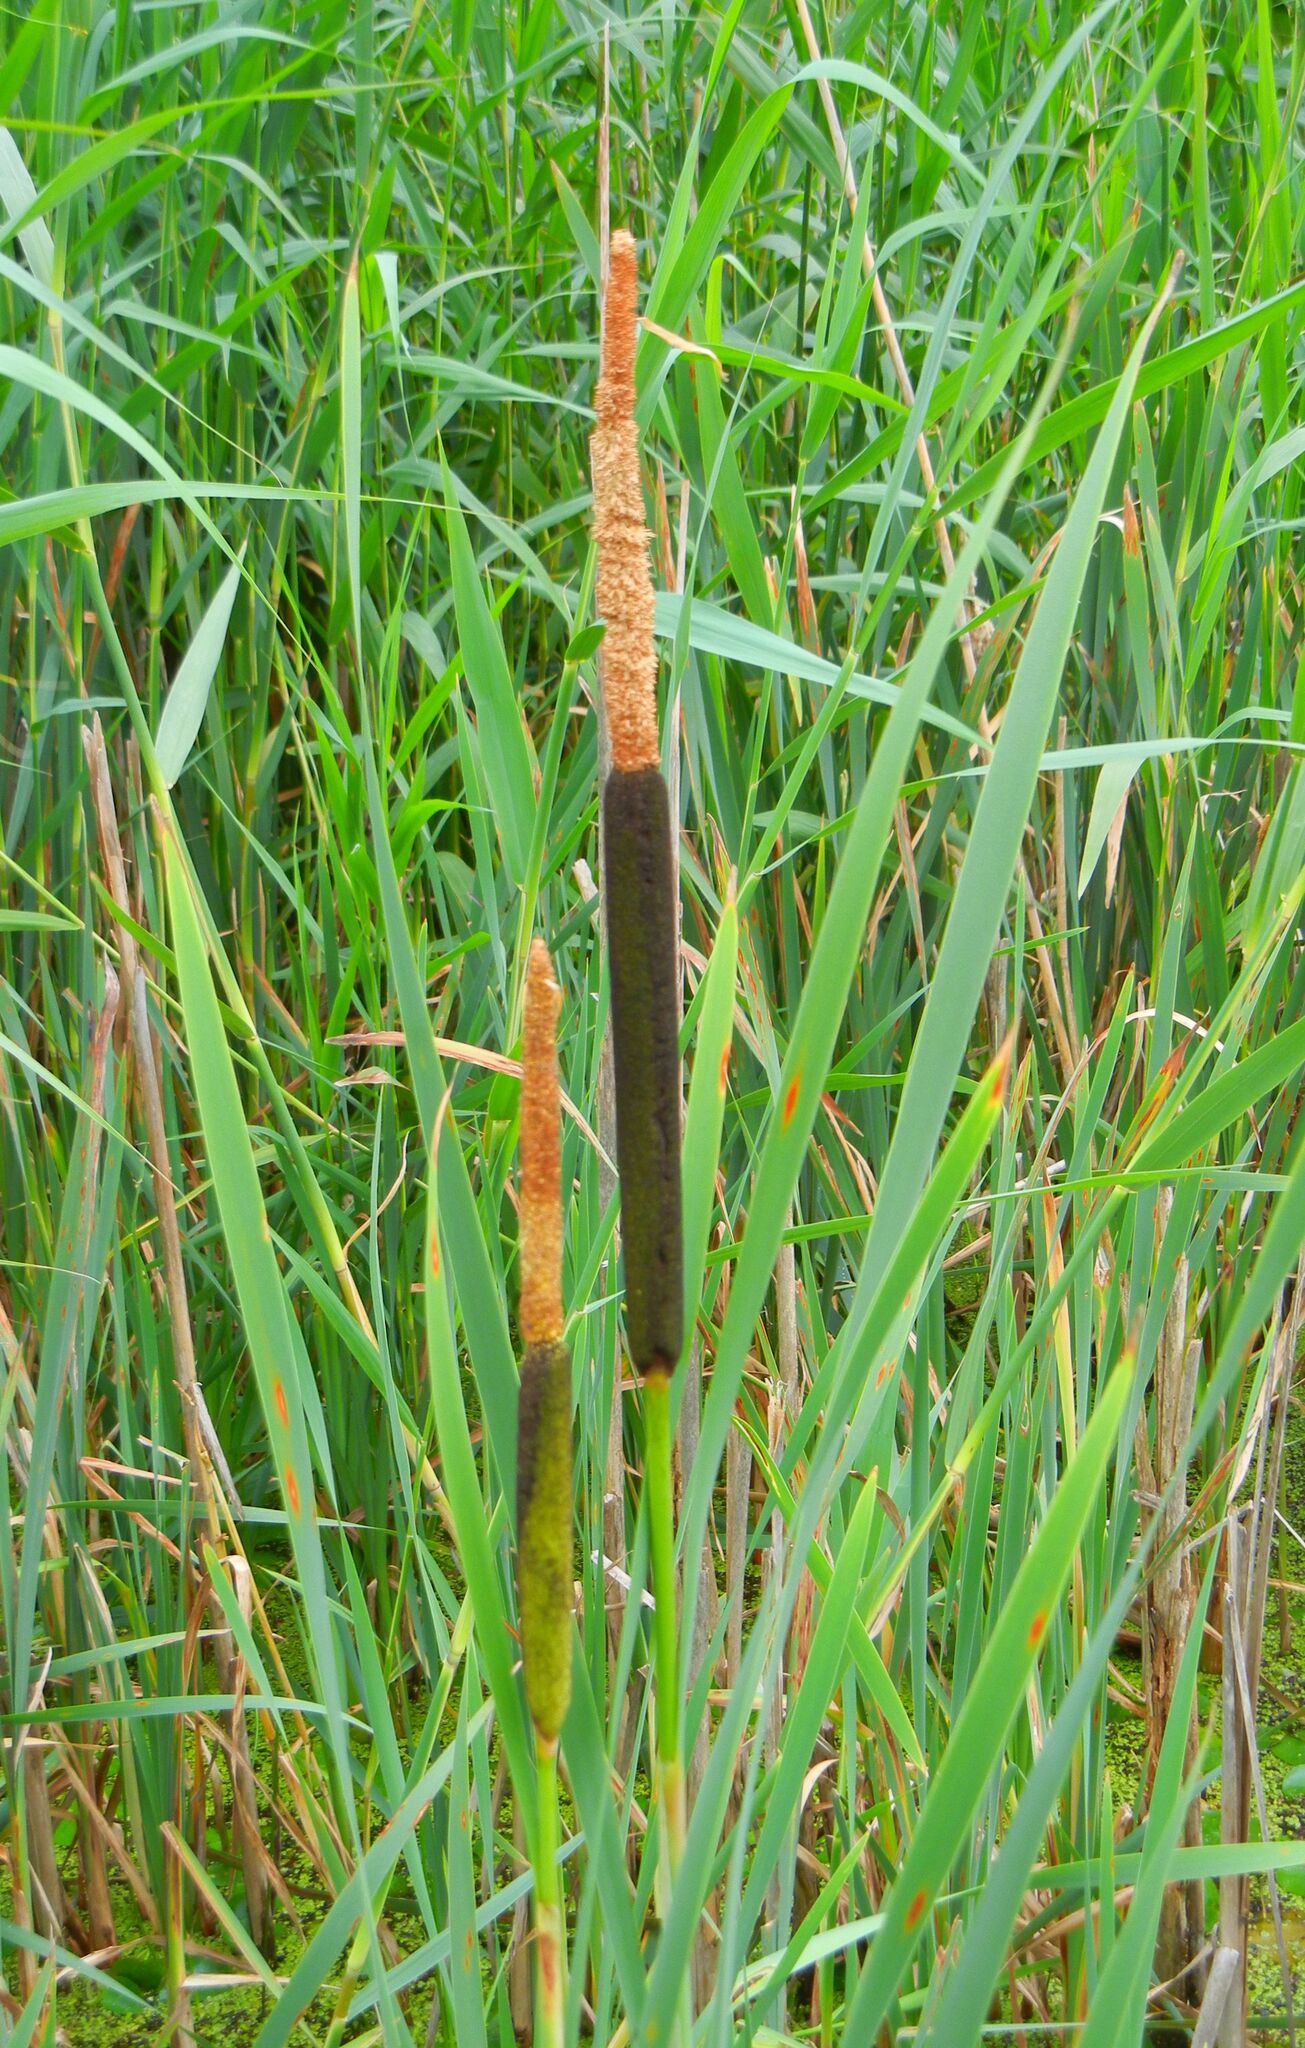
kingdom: Plantae
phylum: Tracheophyta
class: Liliopsida
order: Poales
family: Typhaceae
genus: Typha
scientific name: Typha latifolia
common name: Broadleaf cattail
